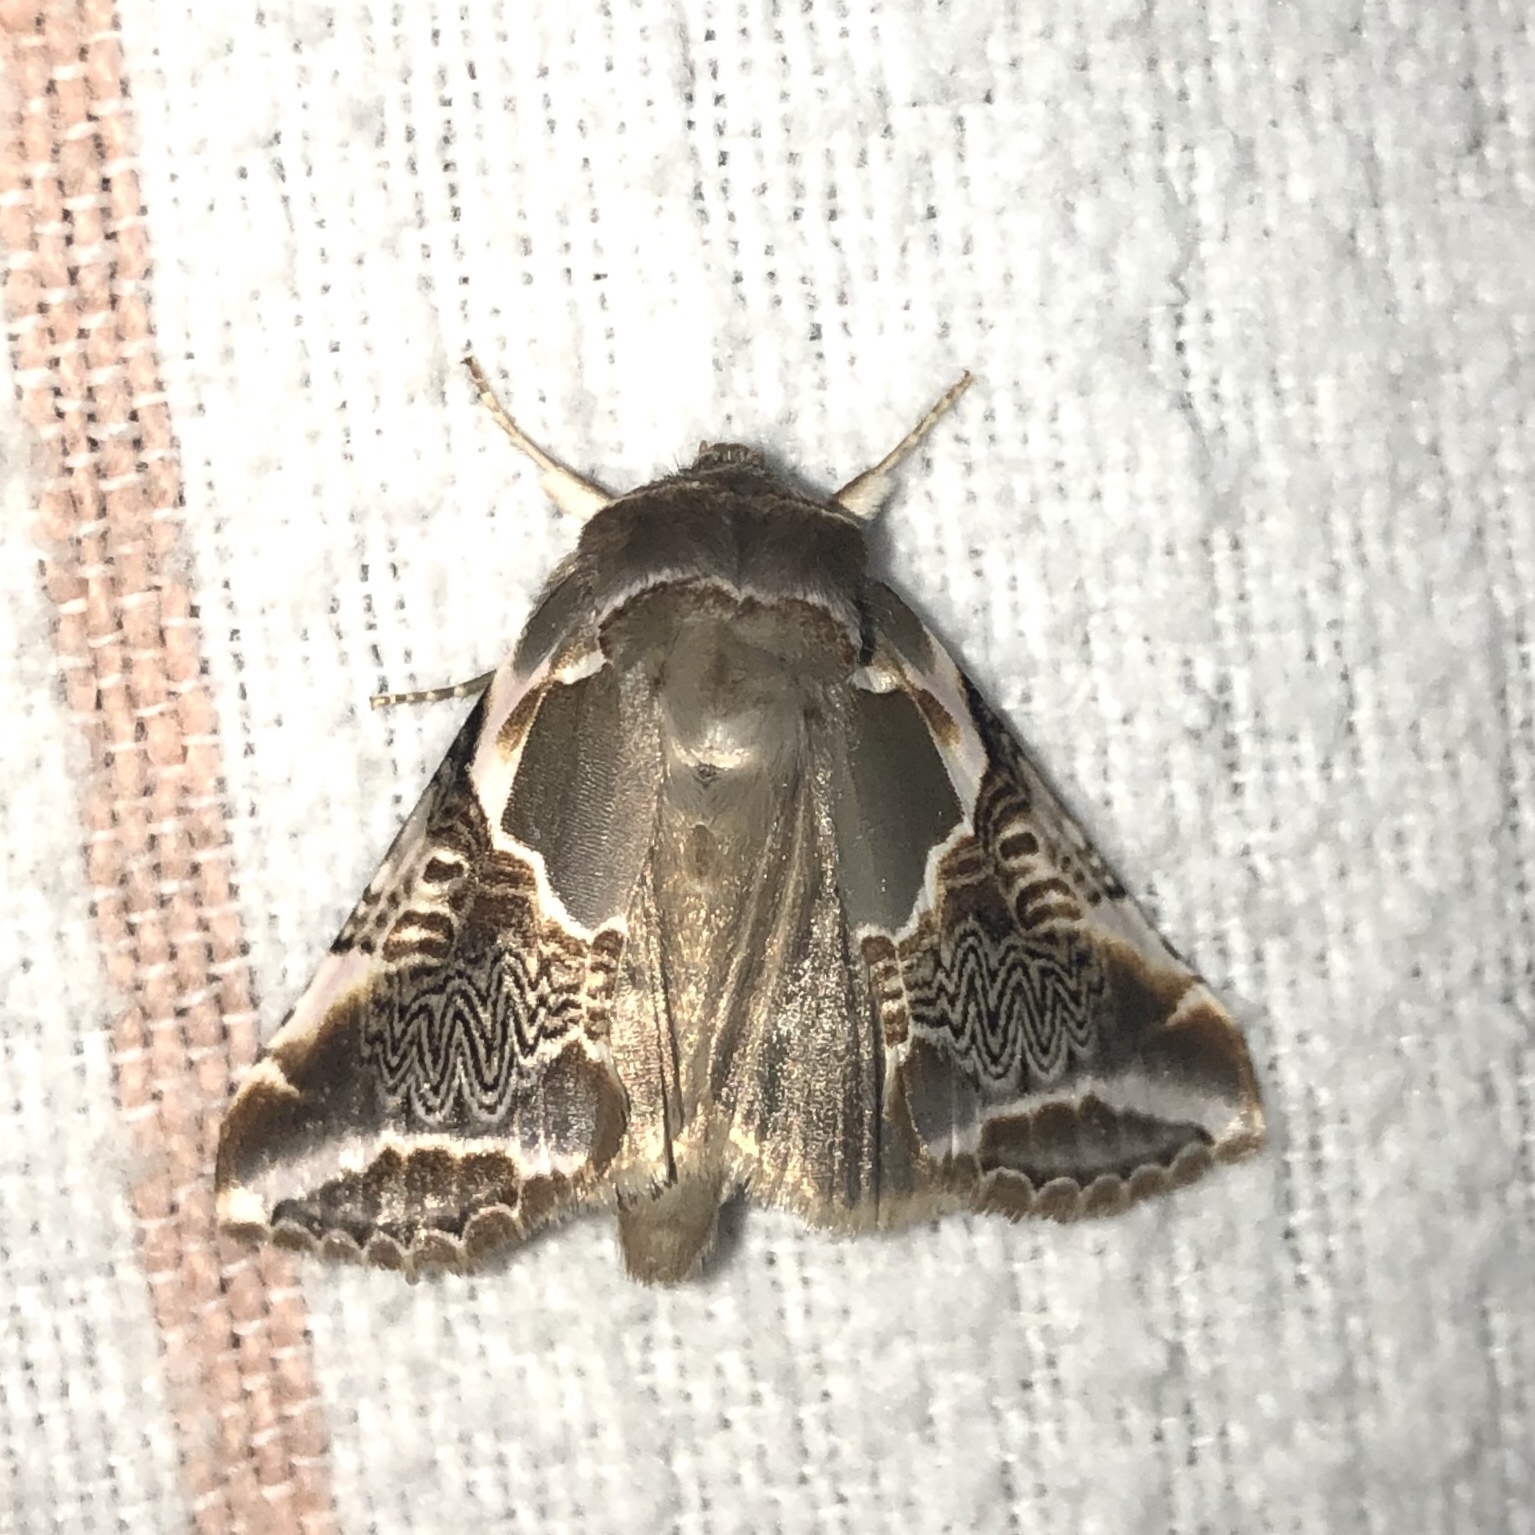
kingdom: Animalia
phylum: Arthropoda
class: Insecta
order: Lepidoptera
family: Drepanidae
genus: Habrosyne
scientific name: Habrosyne scripta
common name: Lettered habrosyne moth
